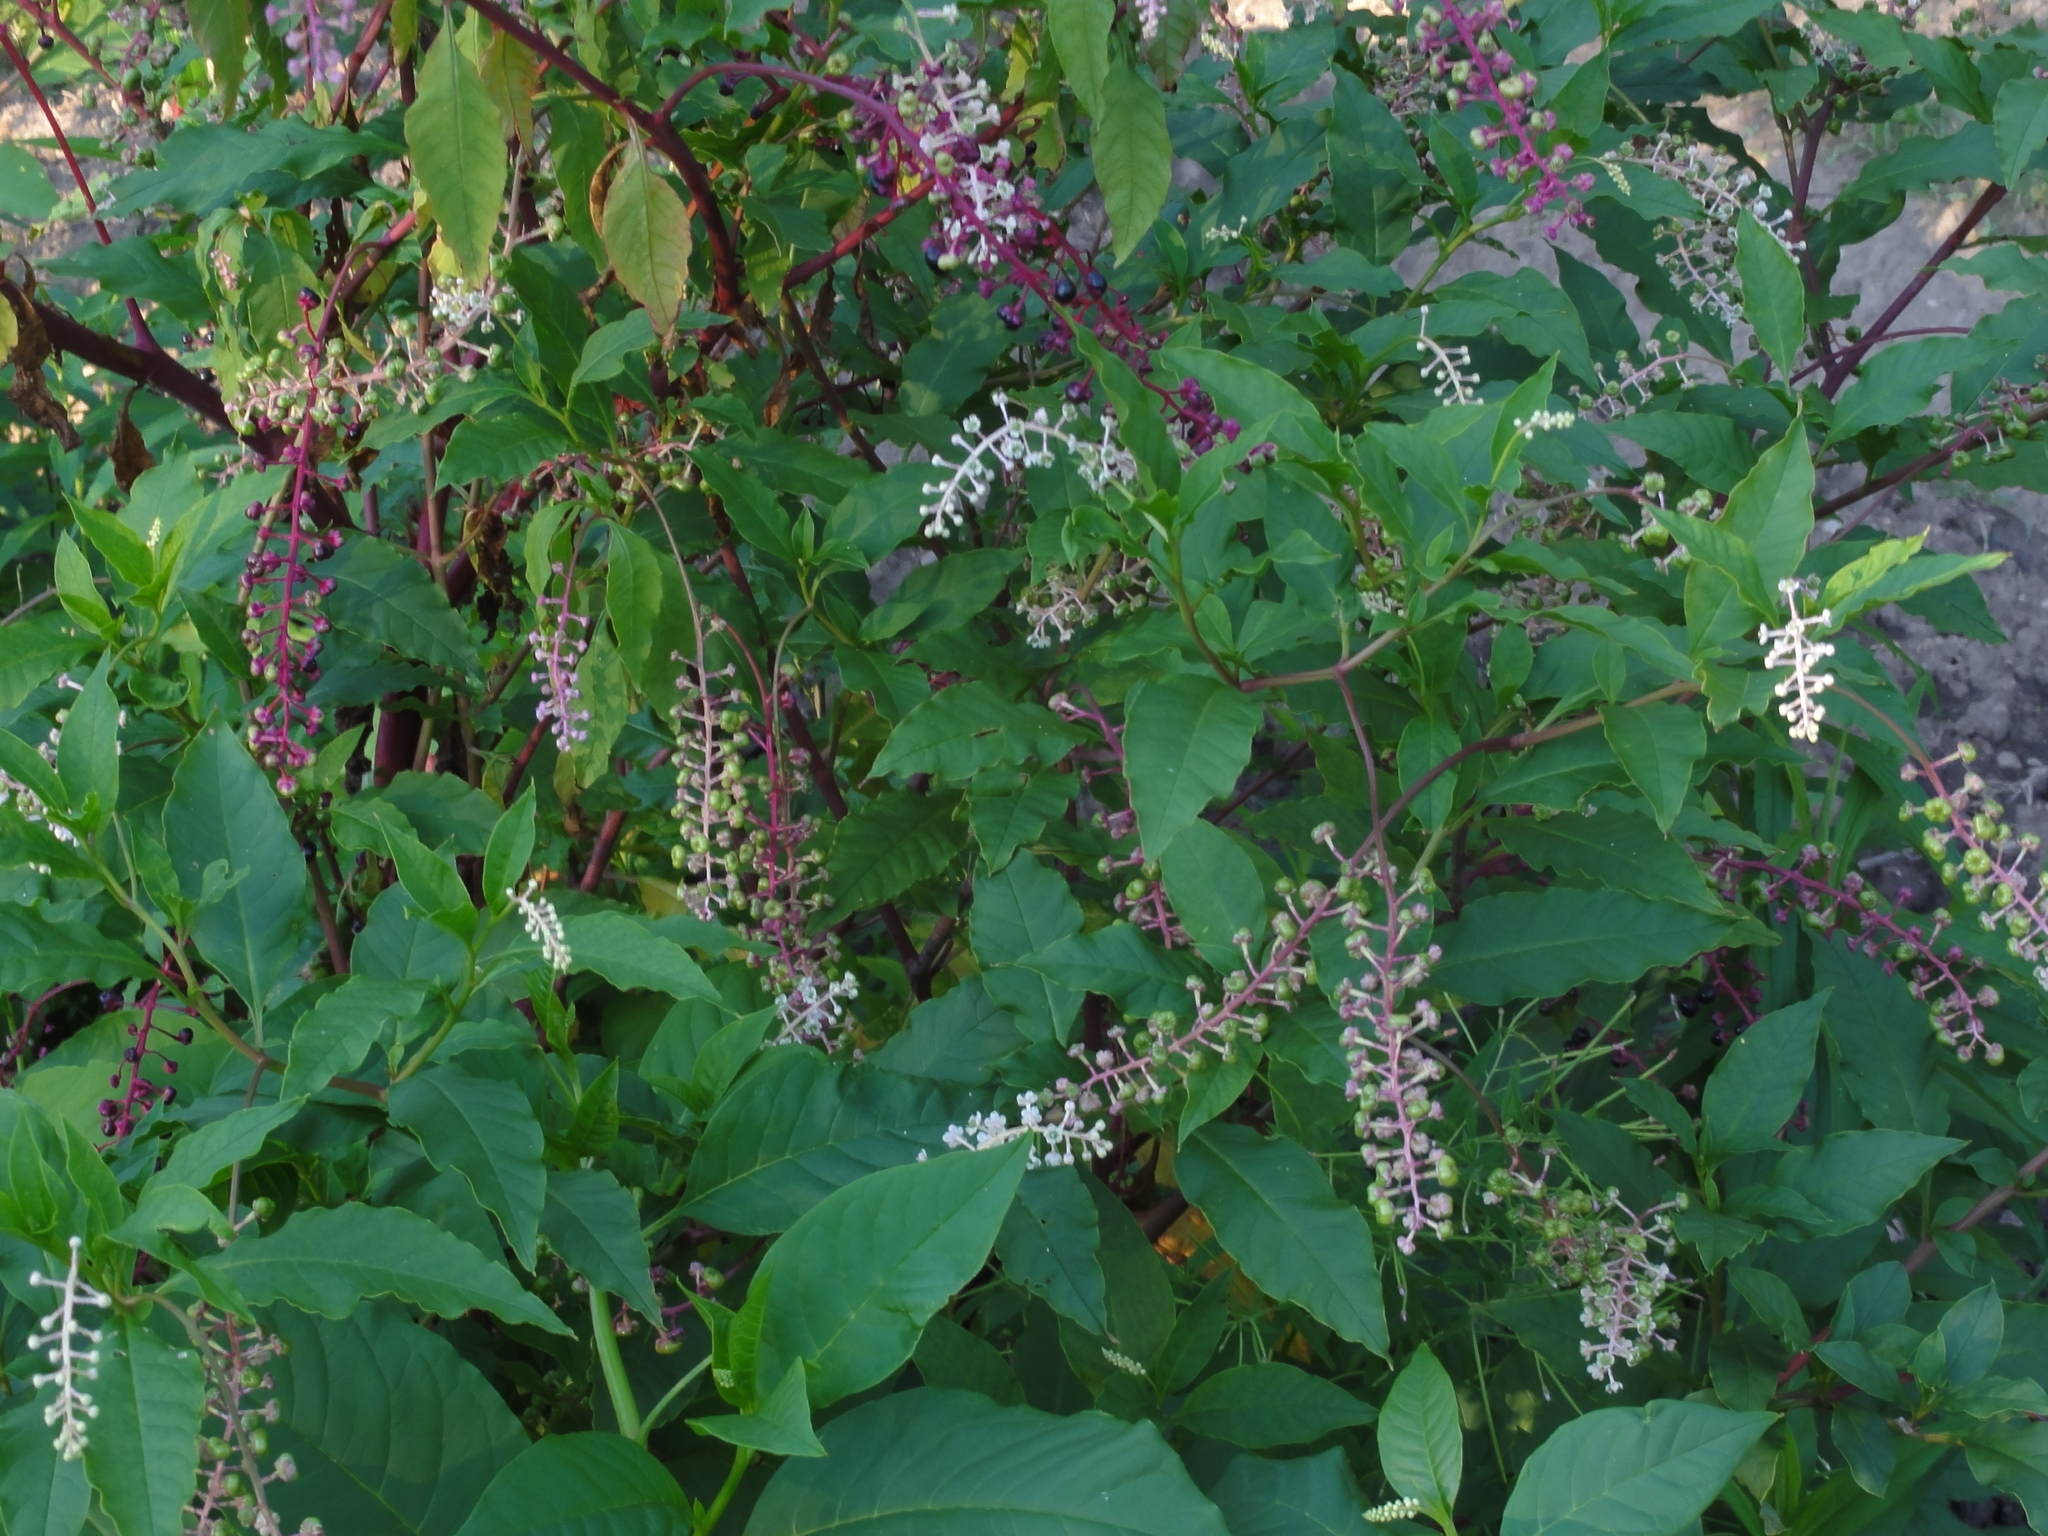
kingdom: Plantae
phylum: Tracheophyta
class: Magnoliopsida
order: Caryophyllales
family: Phytolaccaceae
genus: Phytolacca
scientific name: Phytolacca americana
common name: American pokeweed
